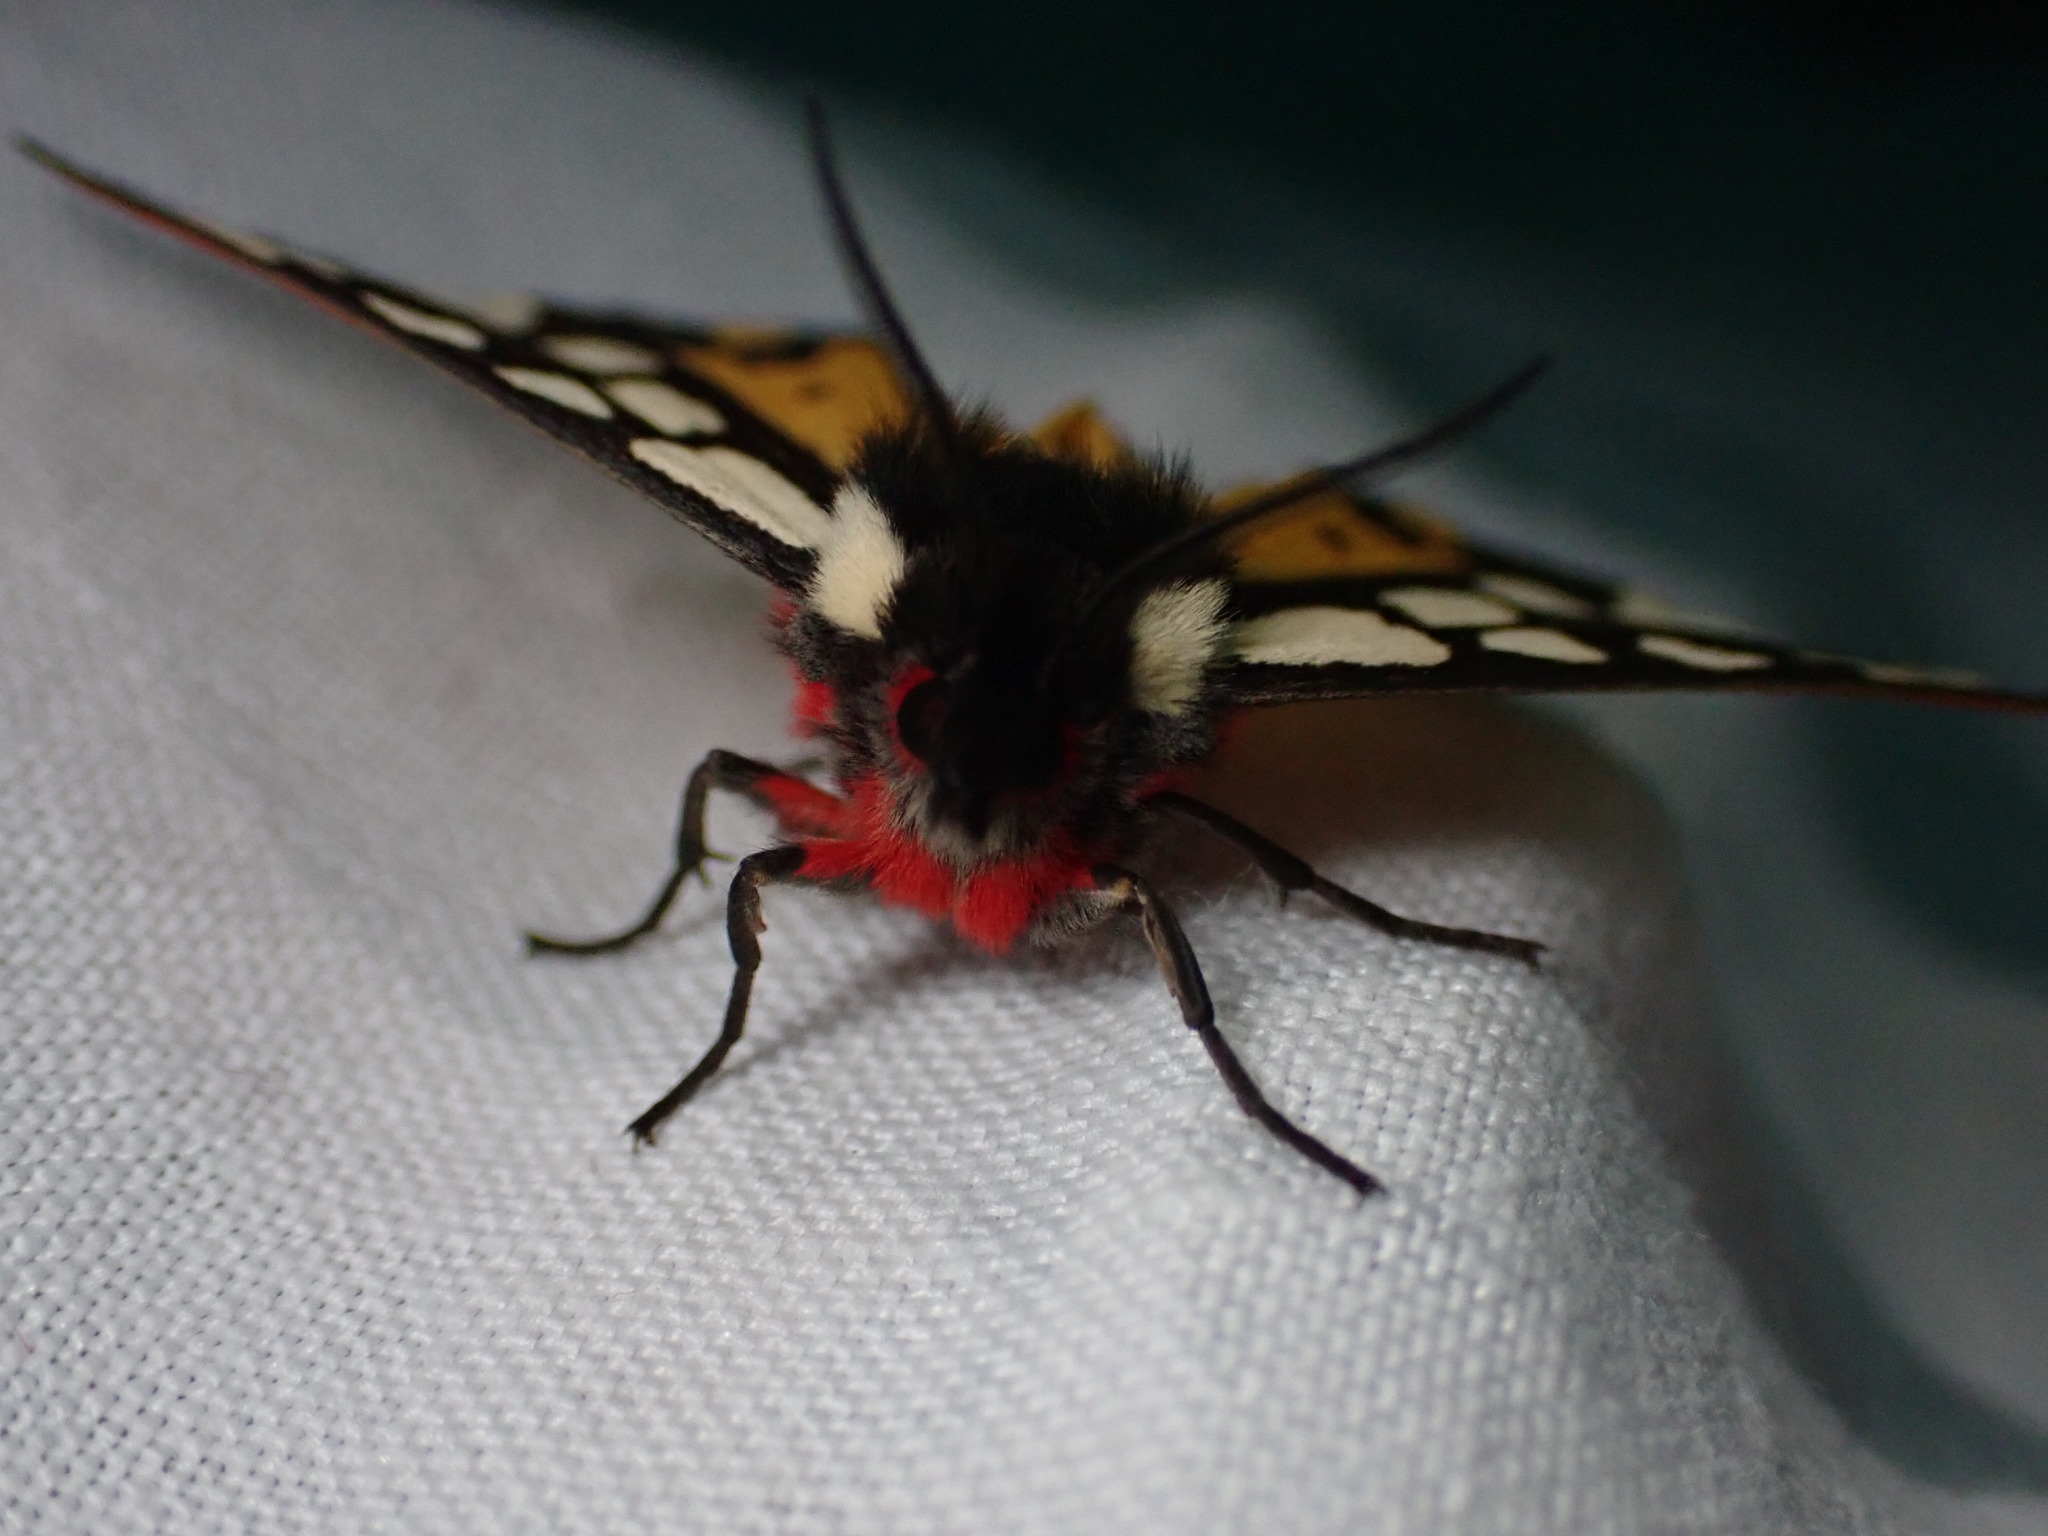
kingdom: Animalia
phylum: Arthropoda
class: Insecta
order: Lepidoptera
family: Erebidae
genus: Epicallia
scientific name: Epicallia villica
